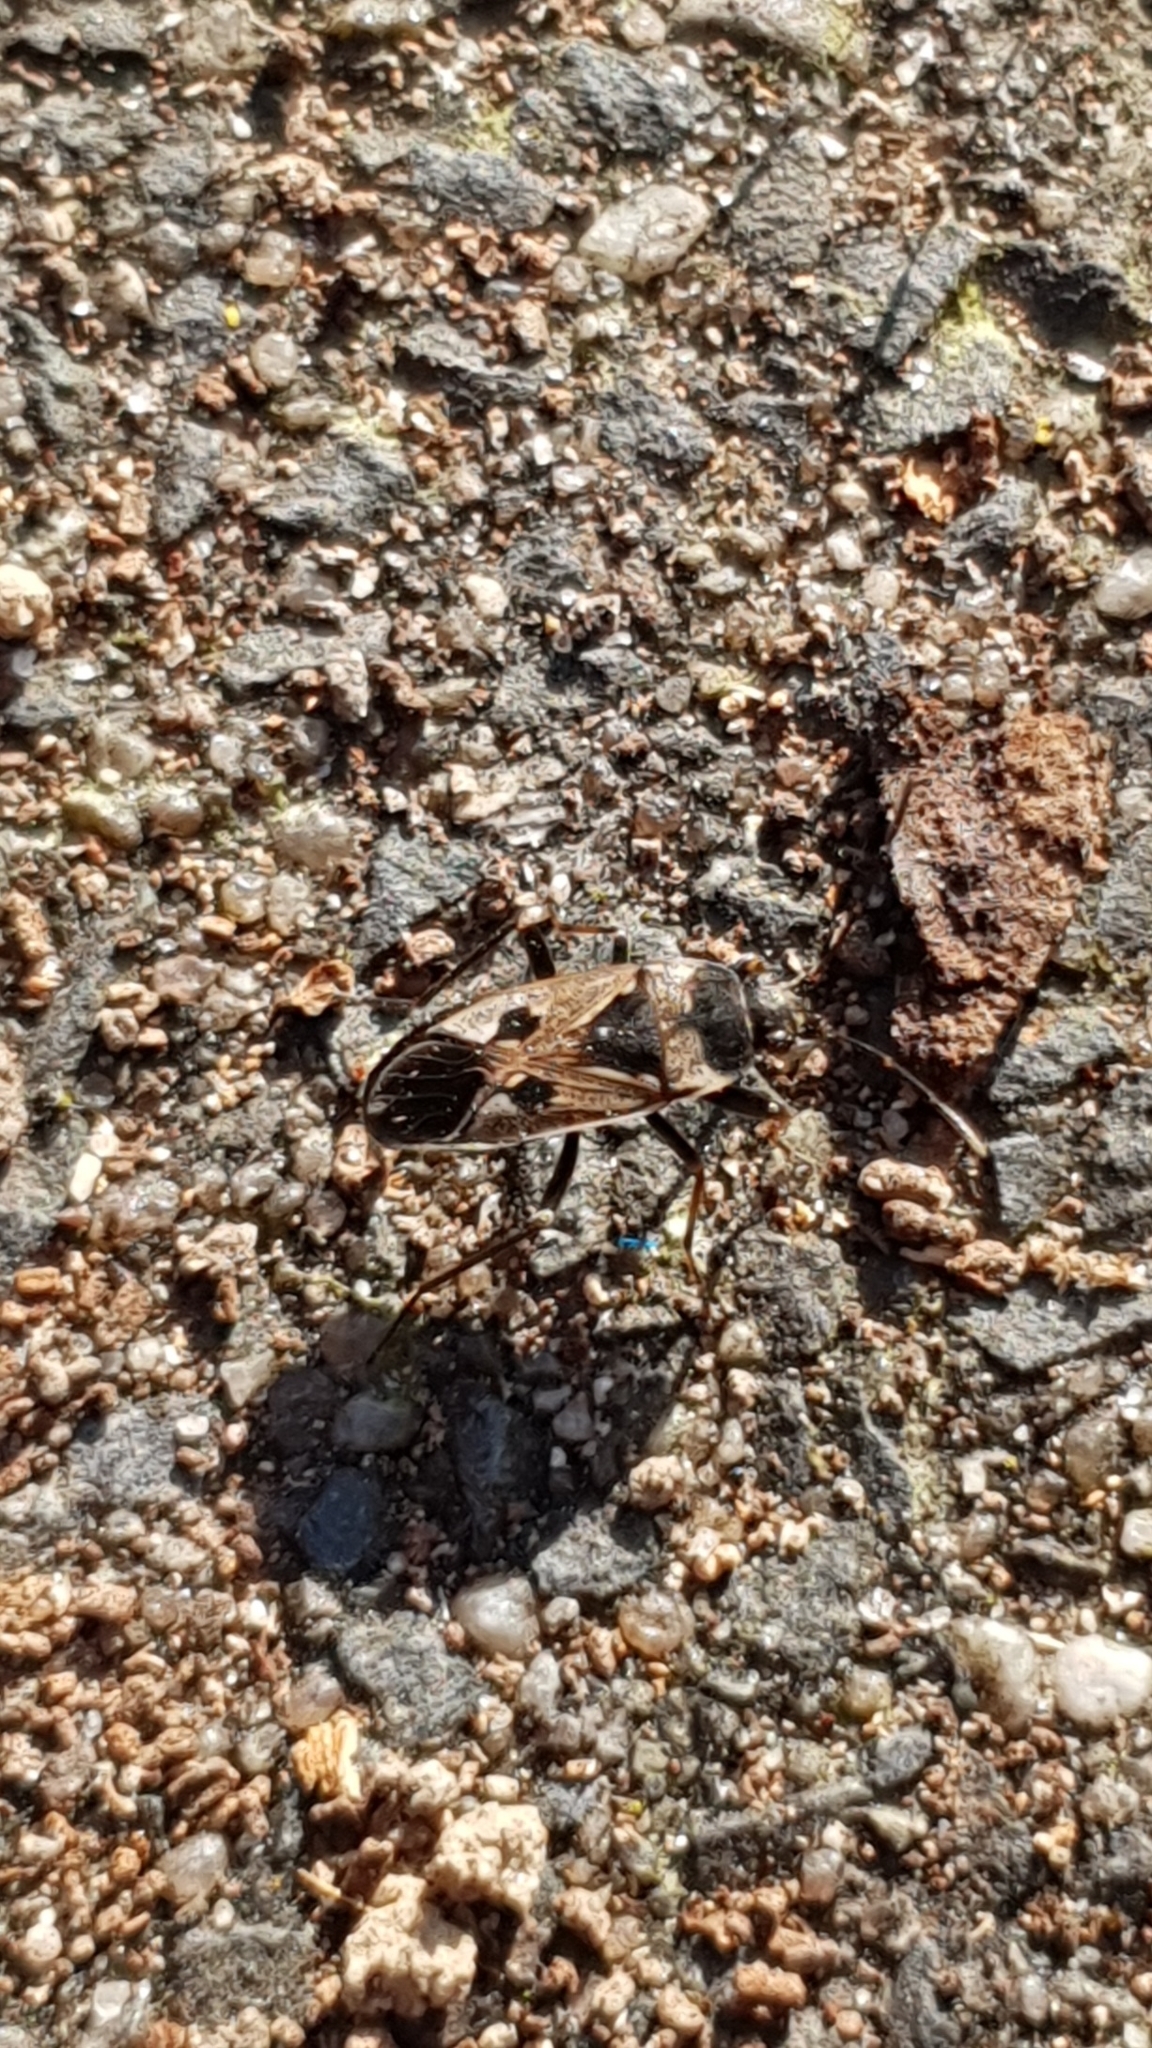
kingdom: Animalia
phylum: Arthropoda
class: Insecta
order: Hemiptera
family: Rhyparochromidae
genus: Rhyparochromus
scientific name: Rhyparochromus vulgaris
